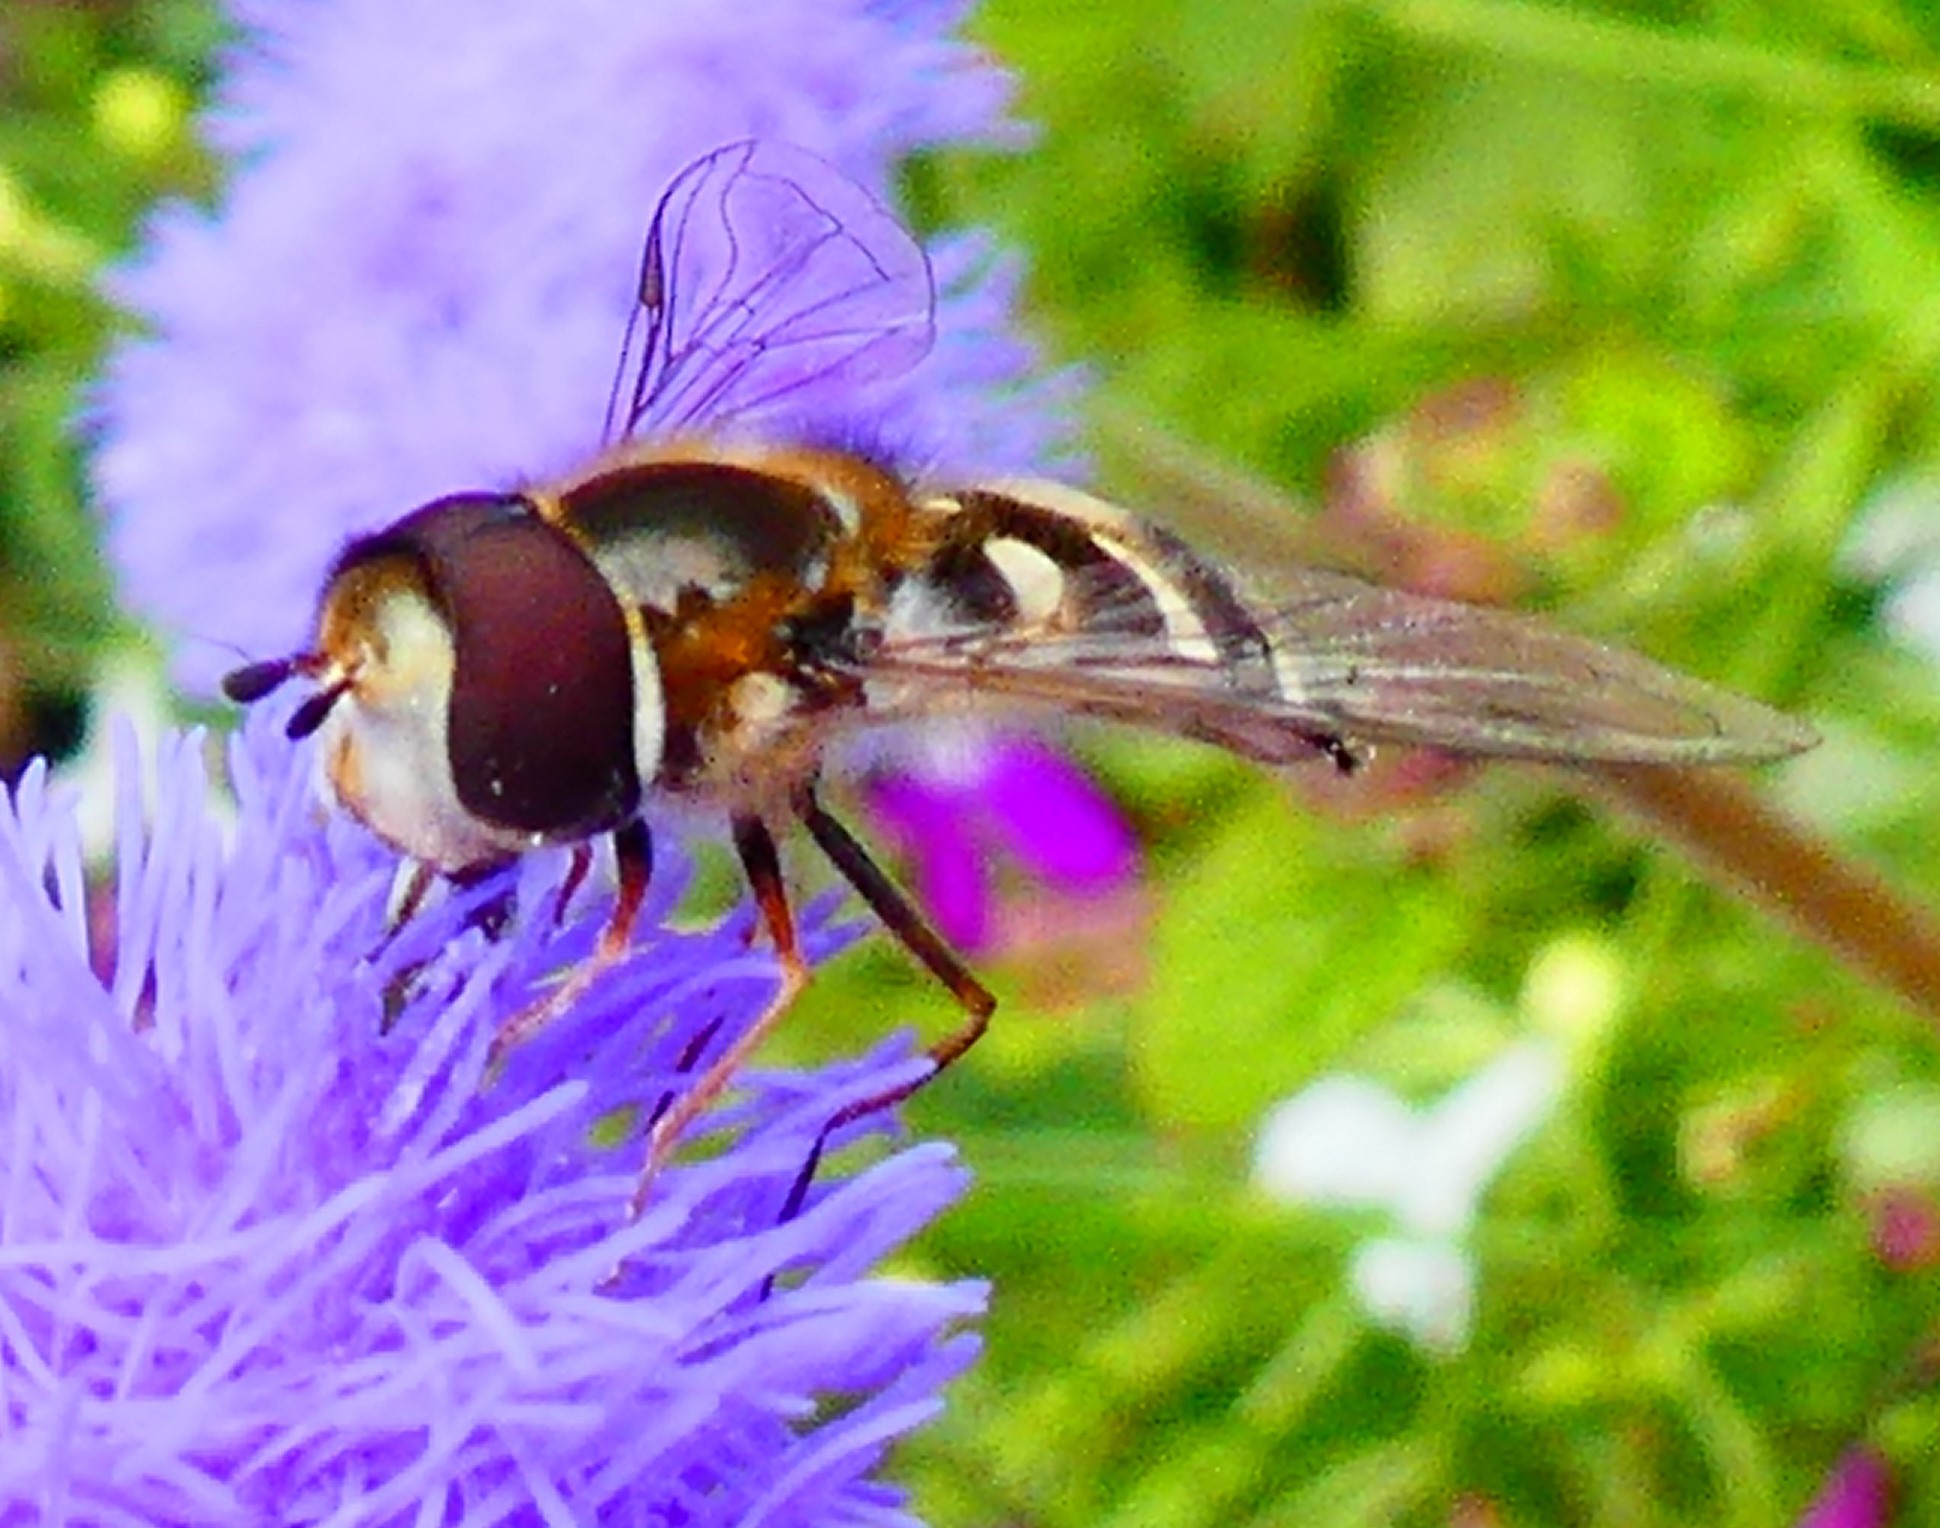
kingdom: Animalia
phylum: Arthropoda
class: Insecta
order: Diptera
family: Syrphidae
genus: Scaeva
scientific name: Scaeva pyrastri
